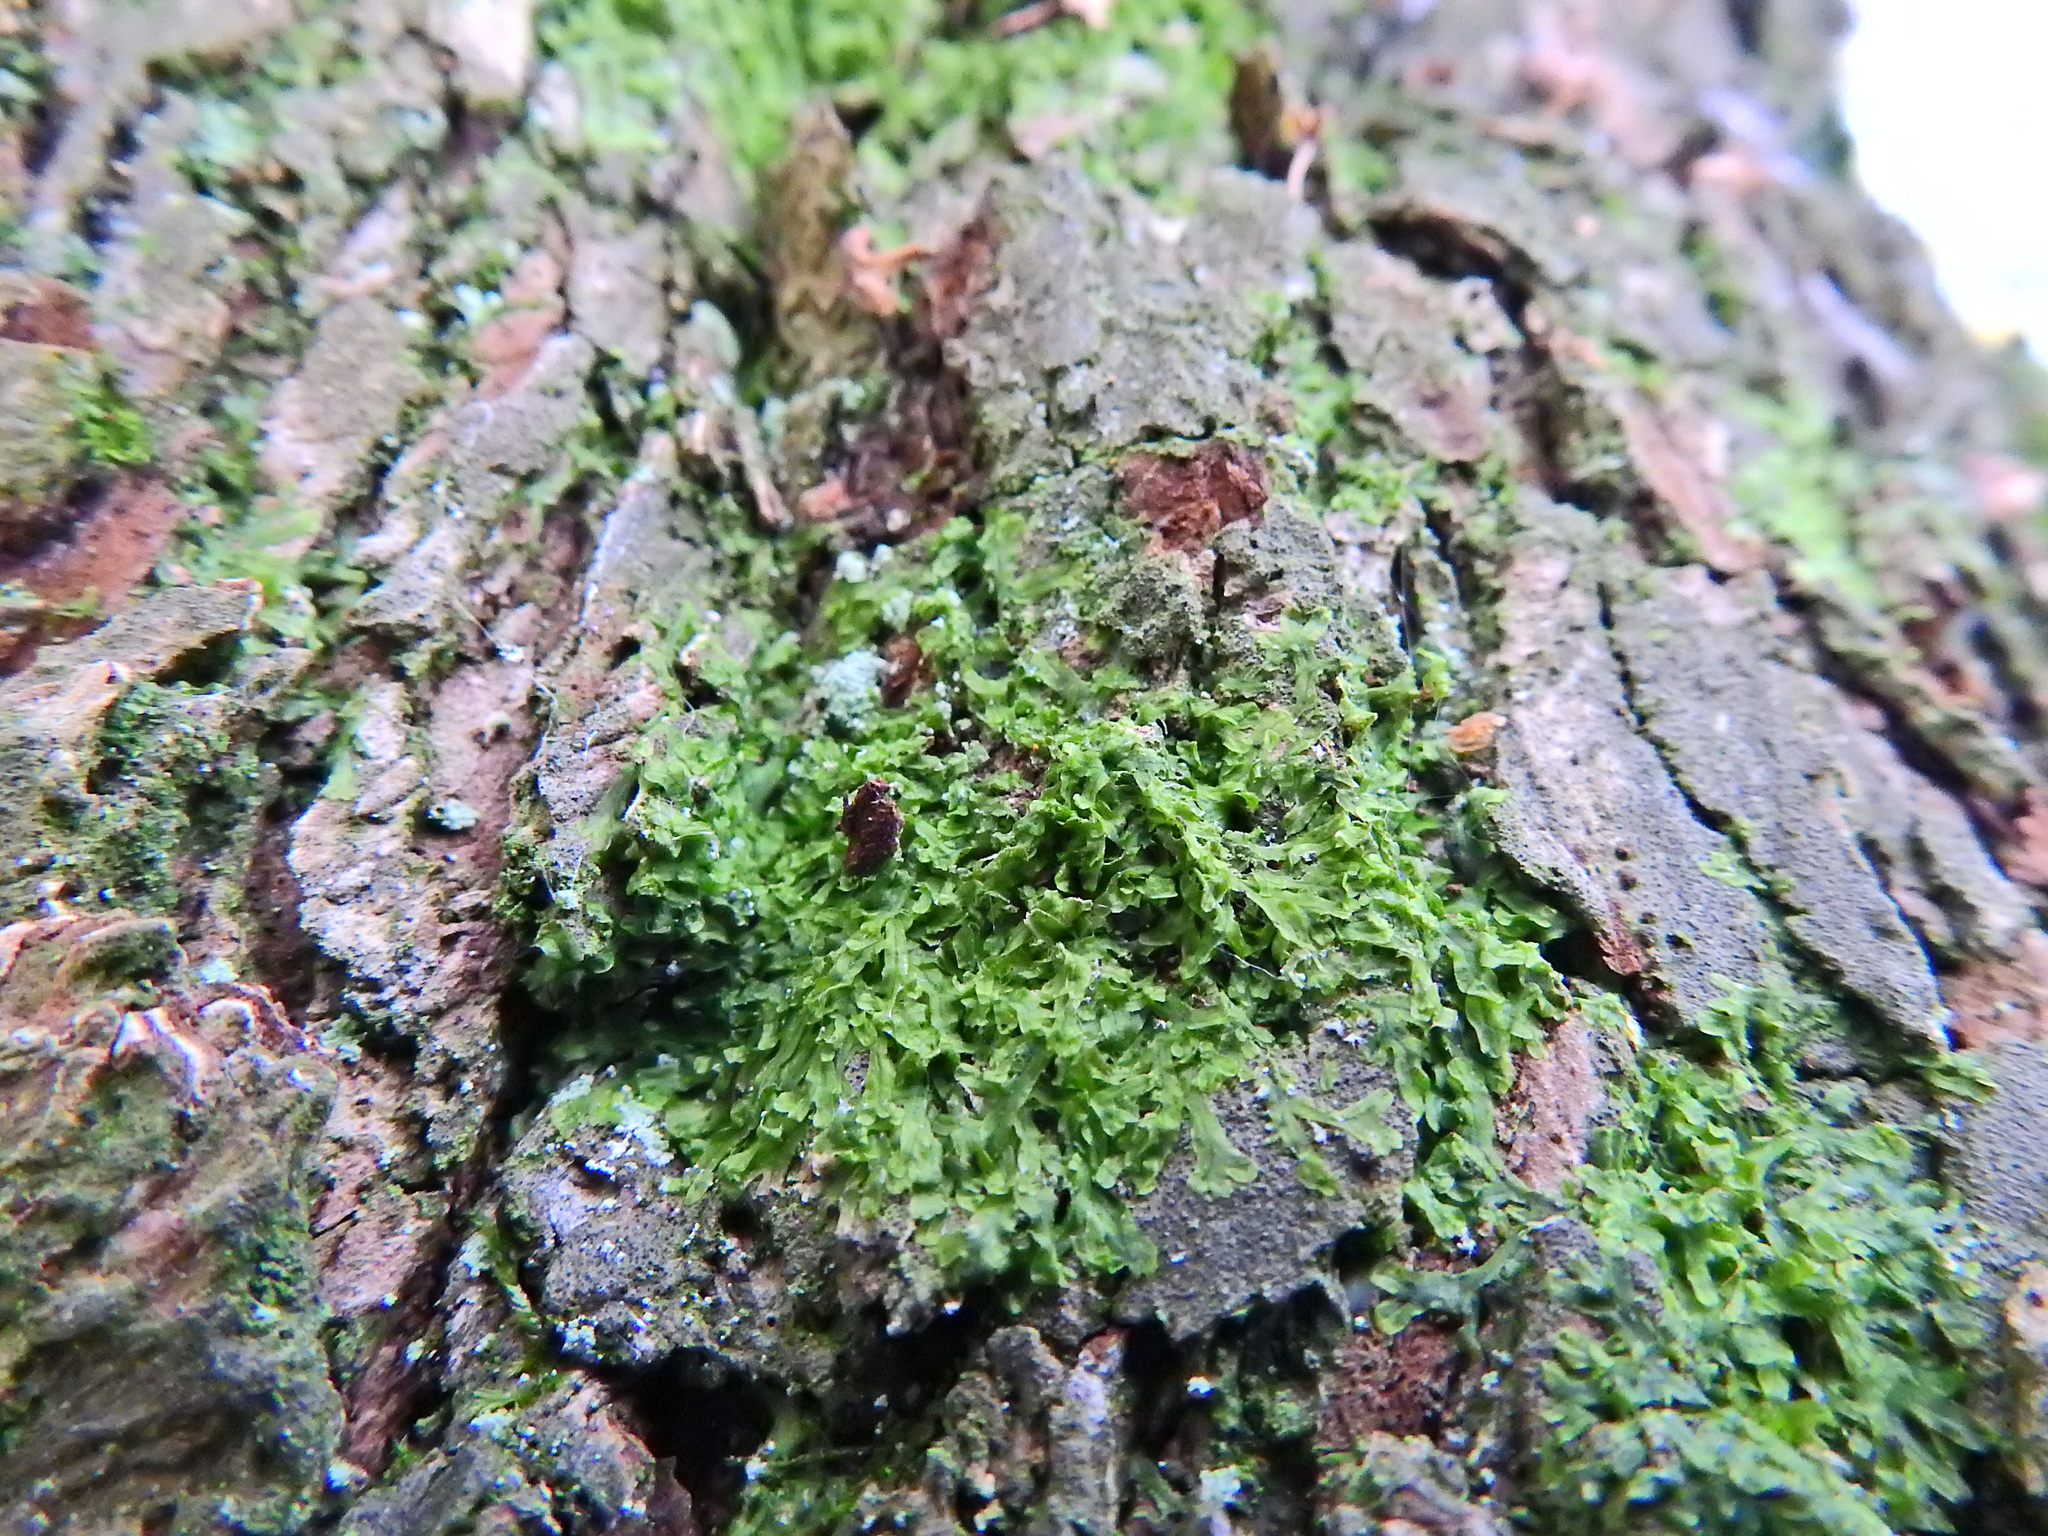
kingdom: Plantae
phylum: Marchantiophyta
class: Jungermanniopsida
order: Metzgeriales
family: Metzgeriaceae
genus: Metzgeria
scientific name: Metzgeria furcata
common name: Forked veilwort
